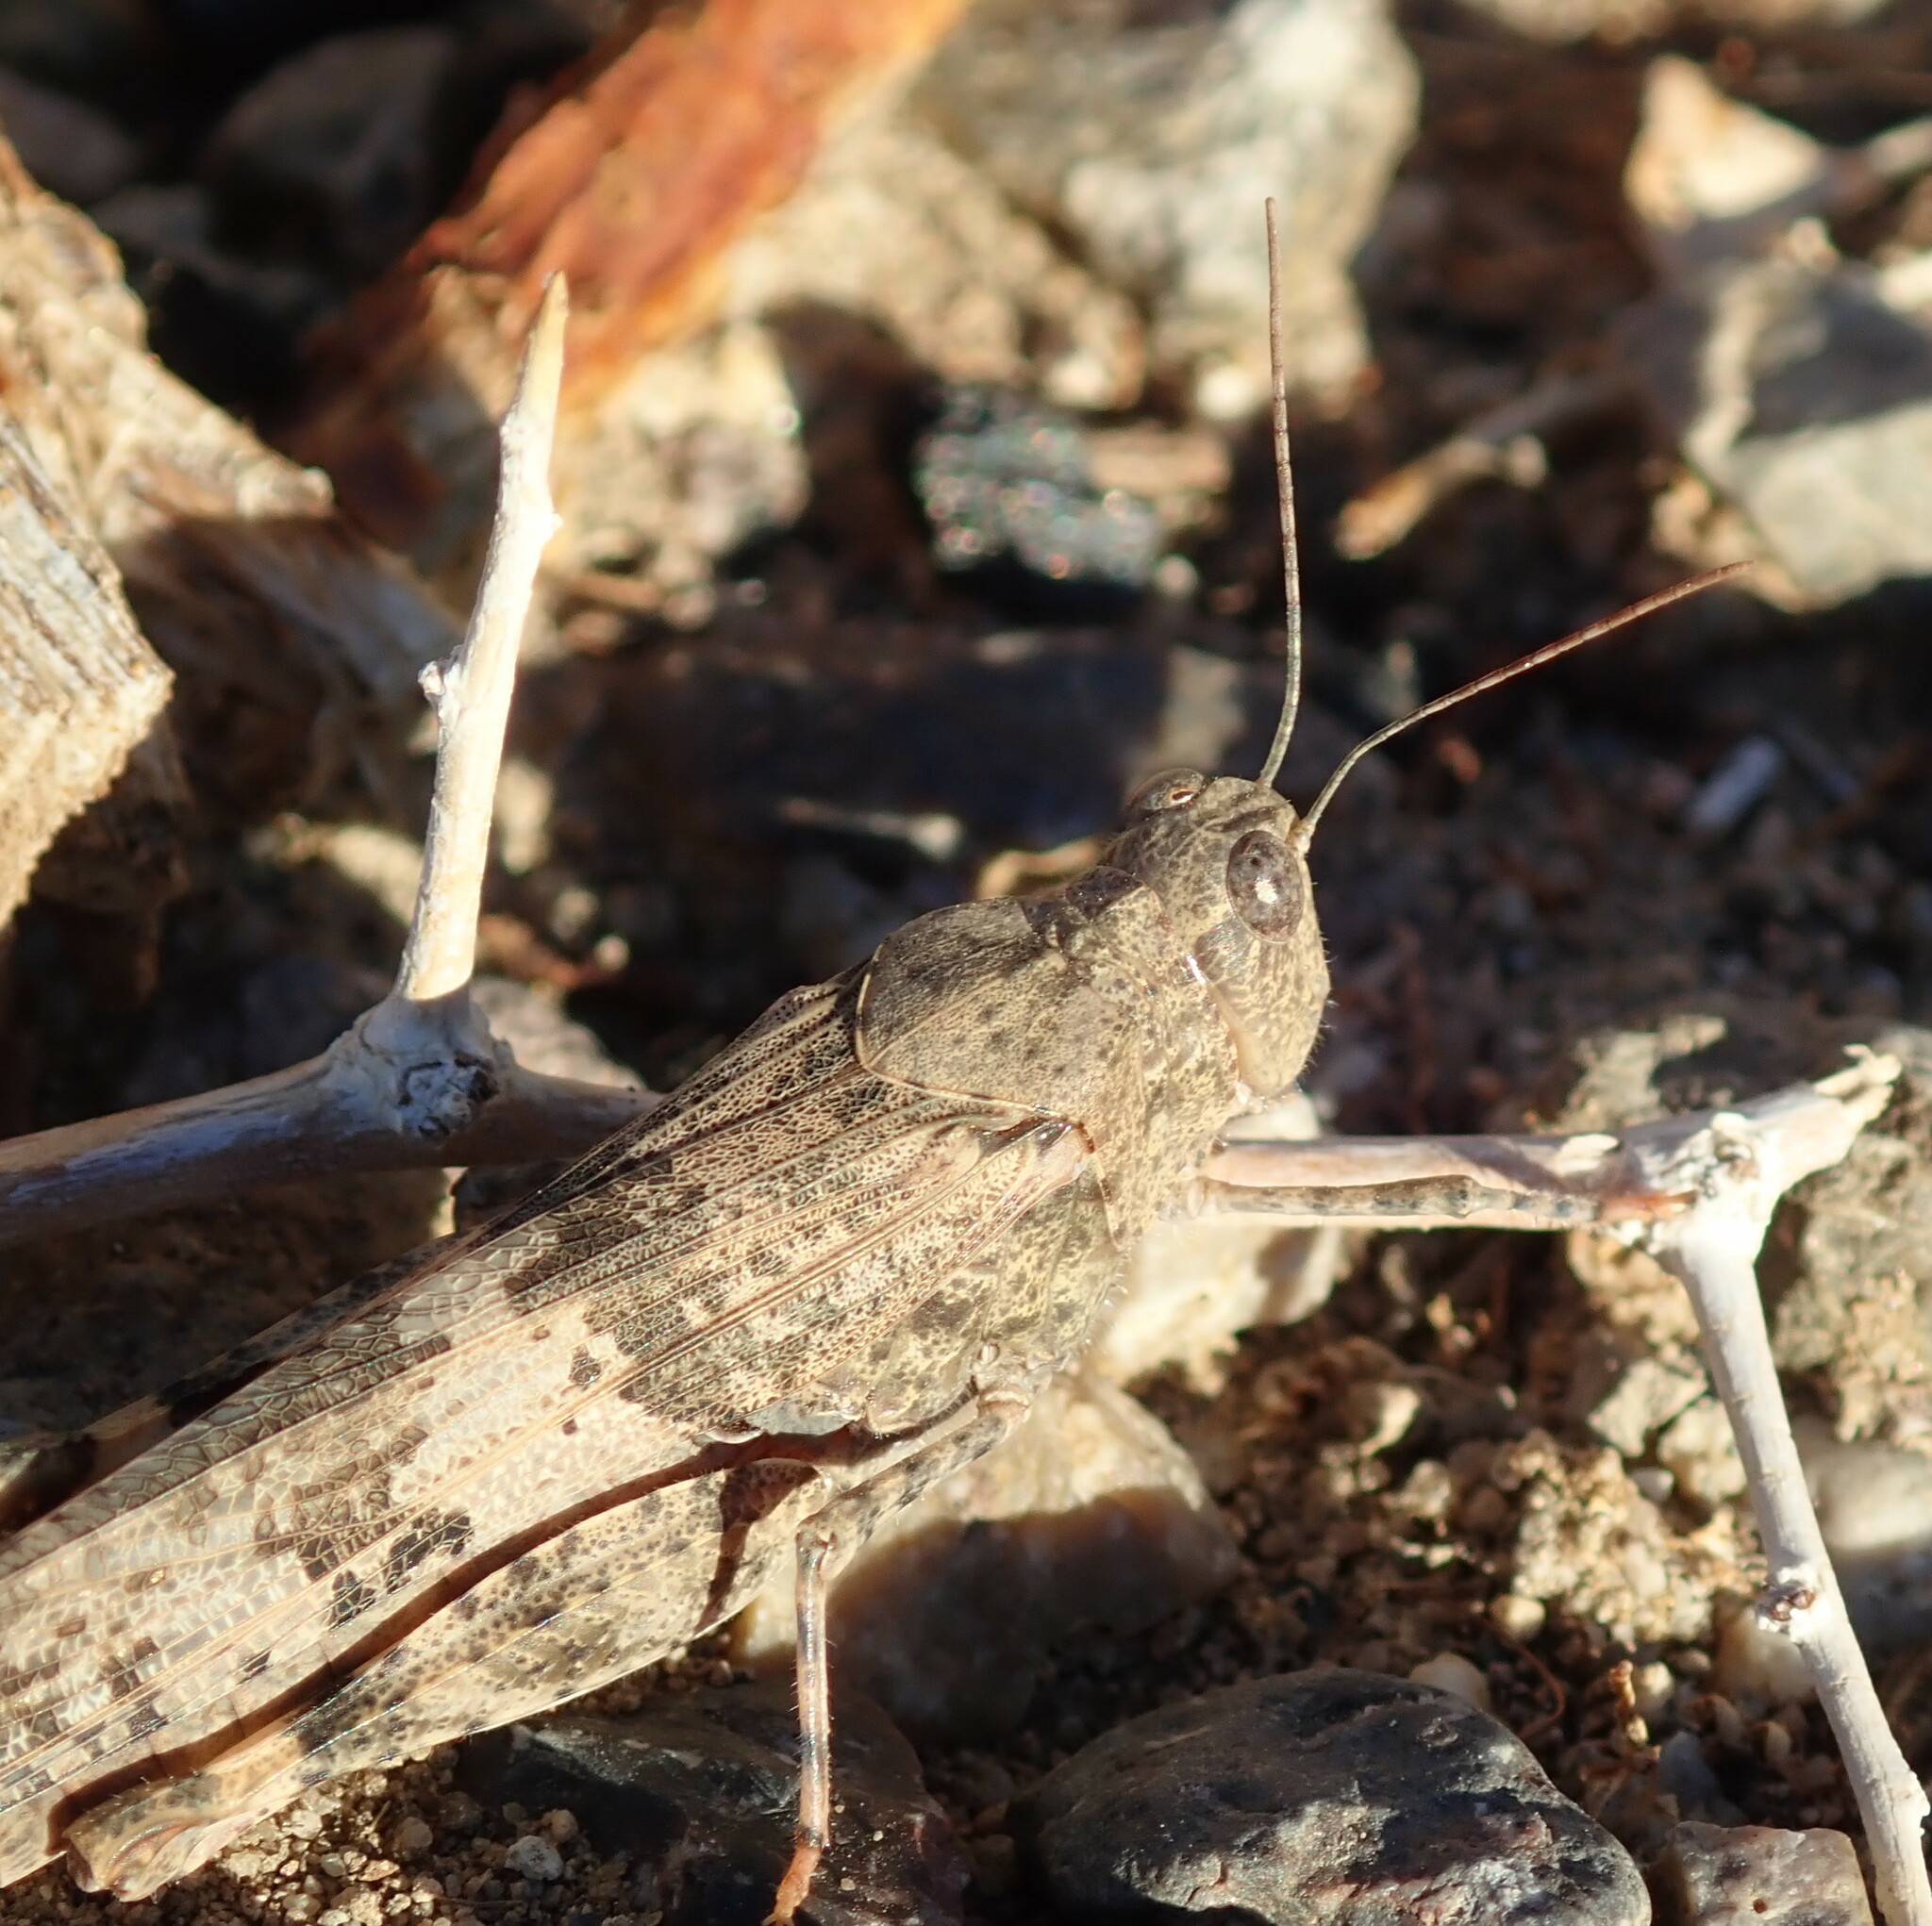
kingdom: Animalia
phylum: Arthropoda
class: Insecta
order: Orthoptera
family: Acrididae
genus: Trimerotropis
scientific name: Trimerotropis pallidipennis
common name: Pallid-winged grasshopper
